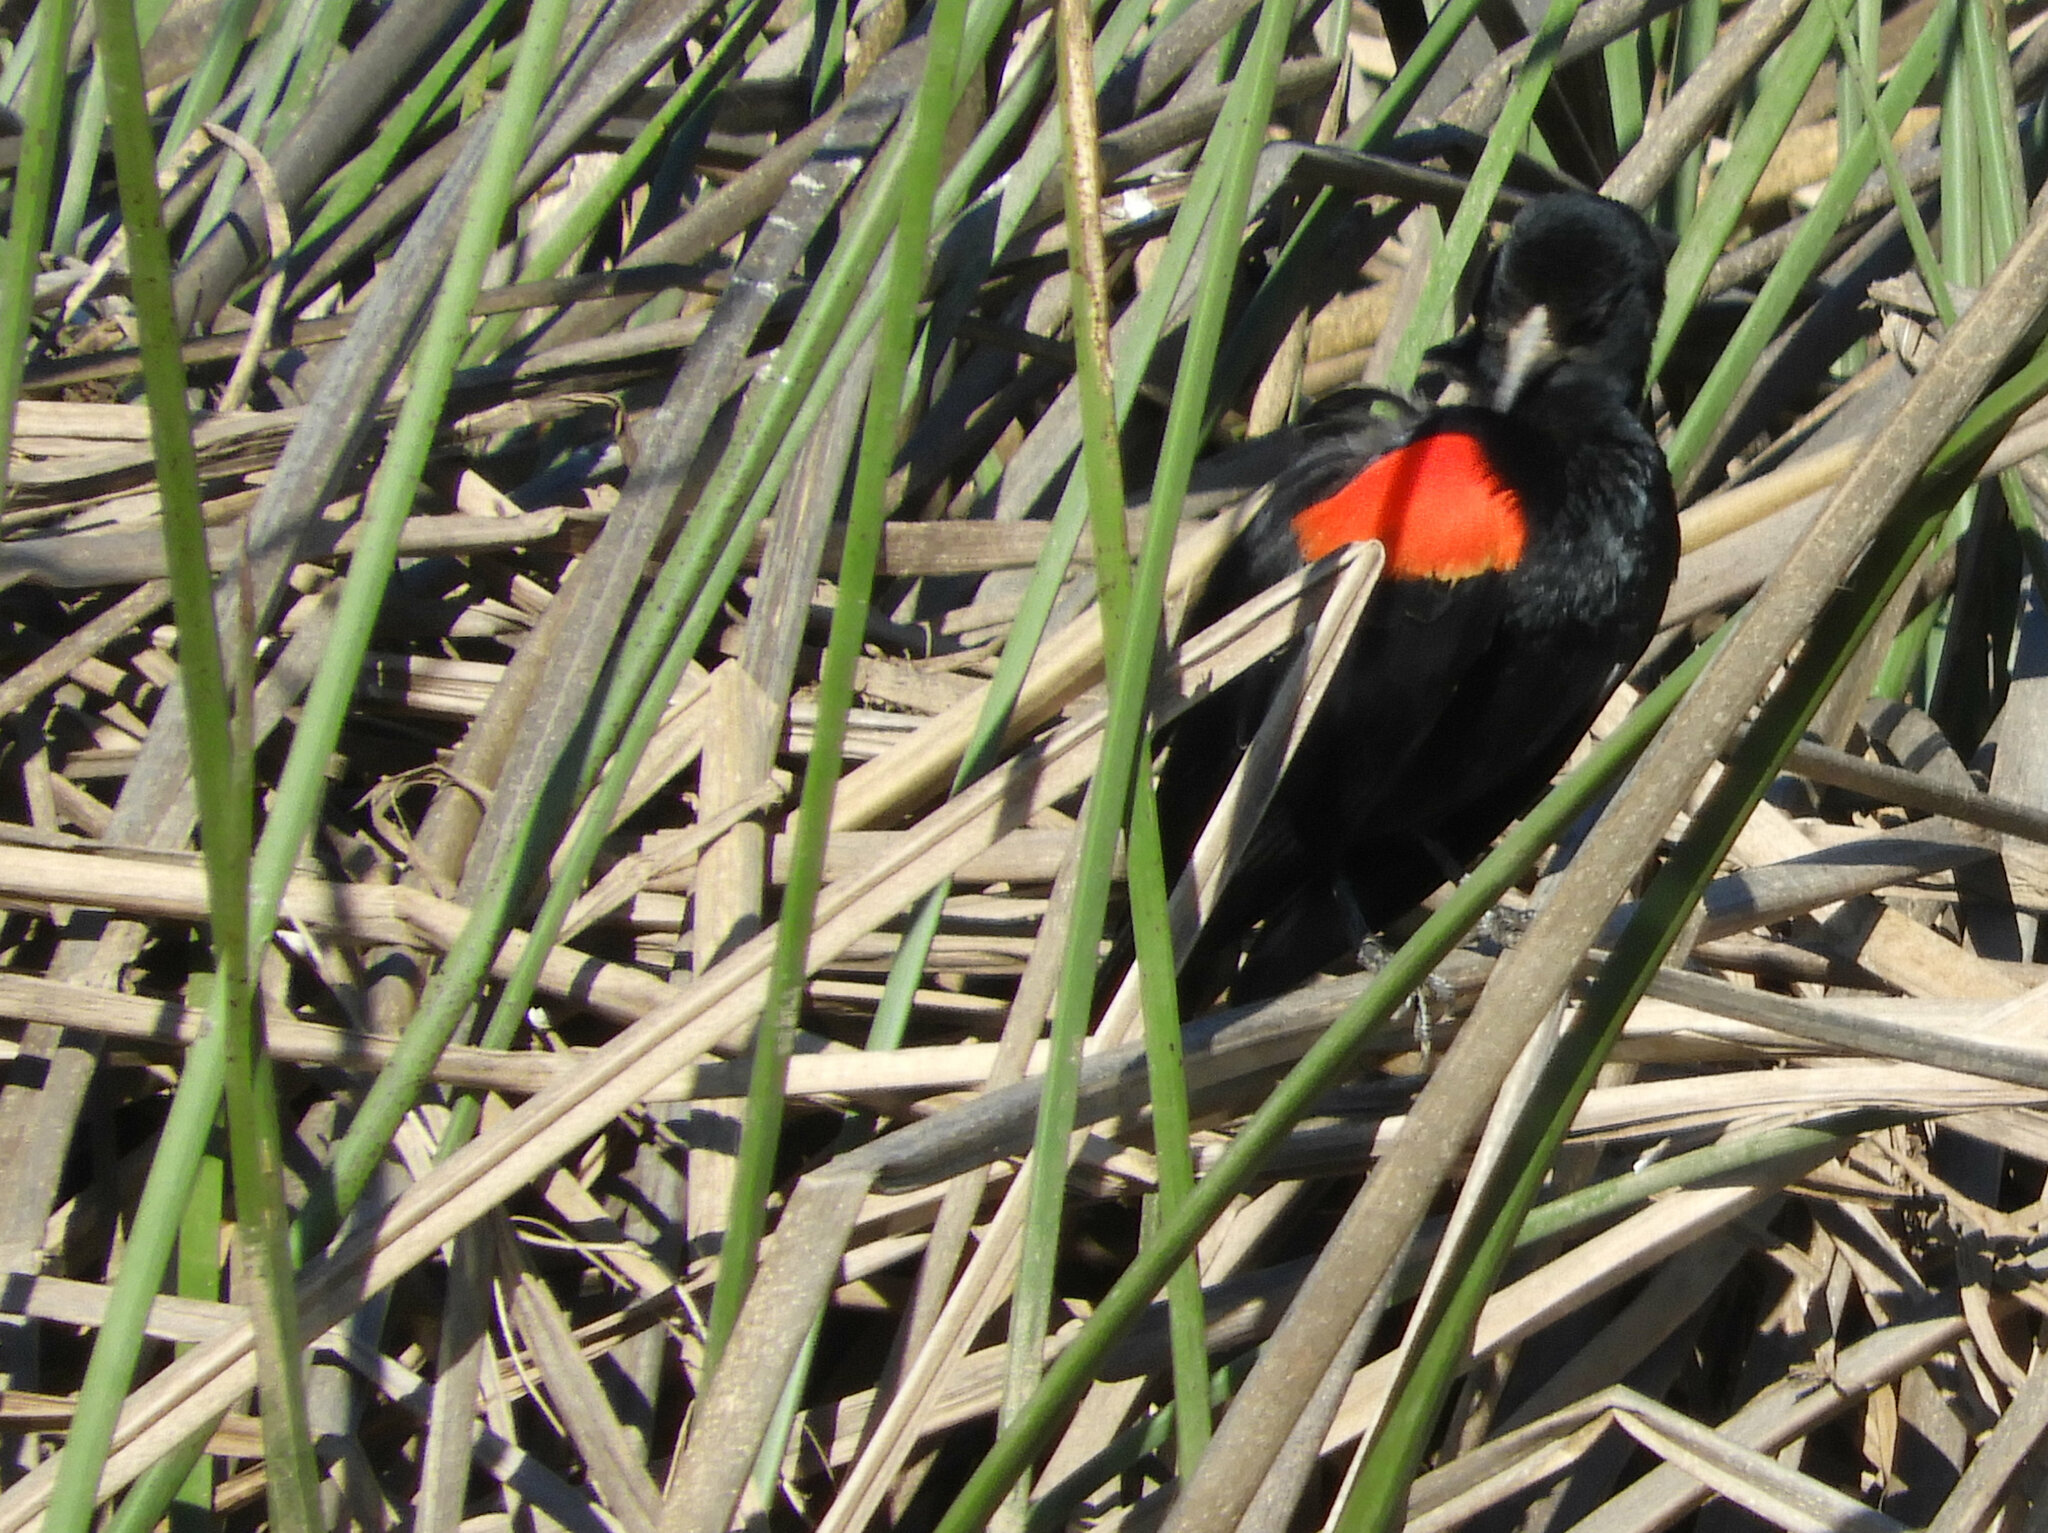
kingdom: Animalia
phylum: Chordata
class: Aves
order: Passeriformes
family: Icteridae
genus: Agelaius
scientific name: Agelaius phoeniceus
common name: Red-winged blackbird
